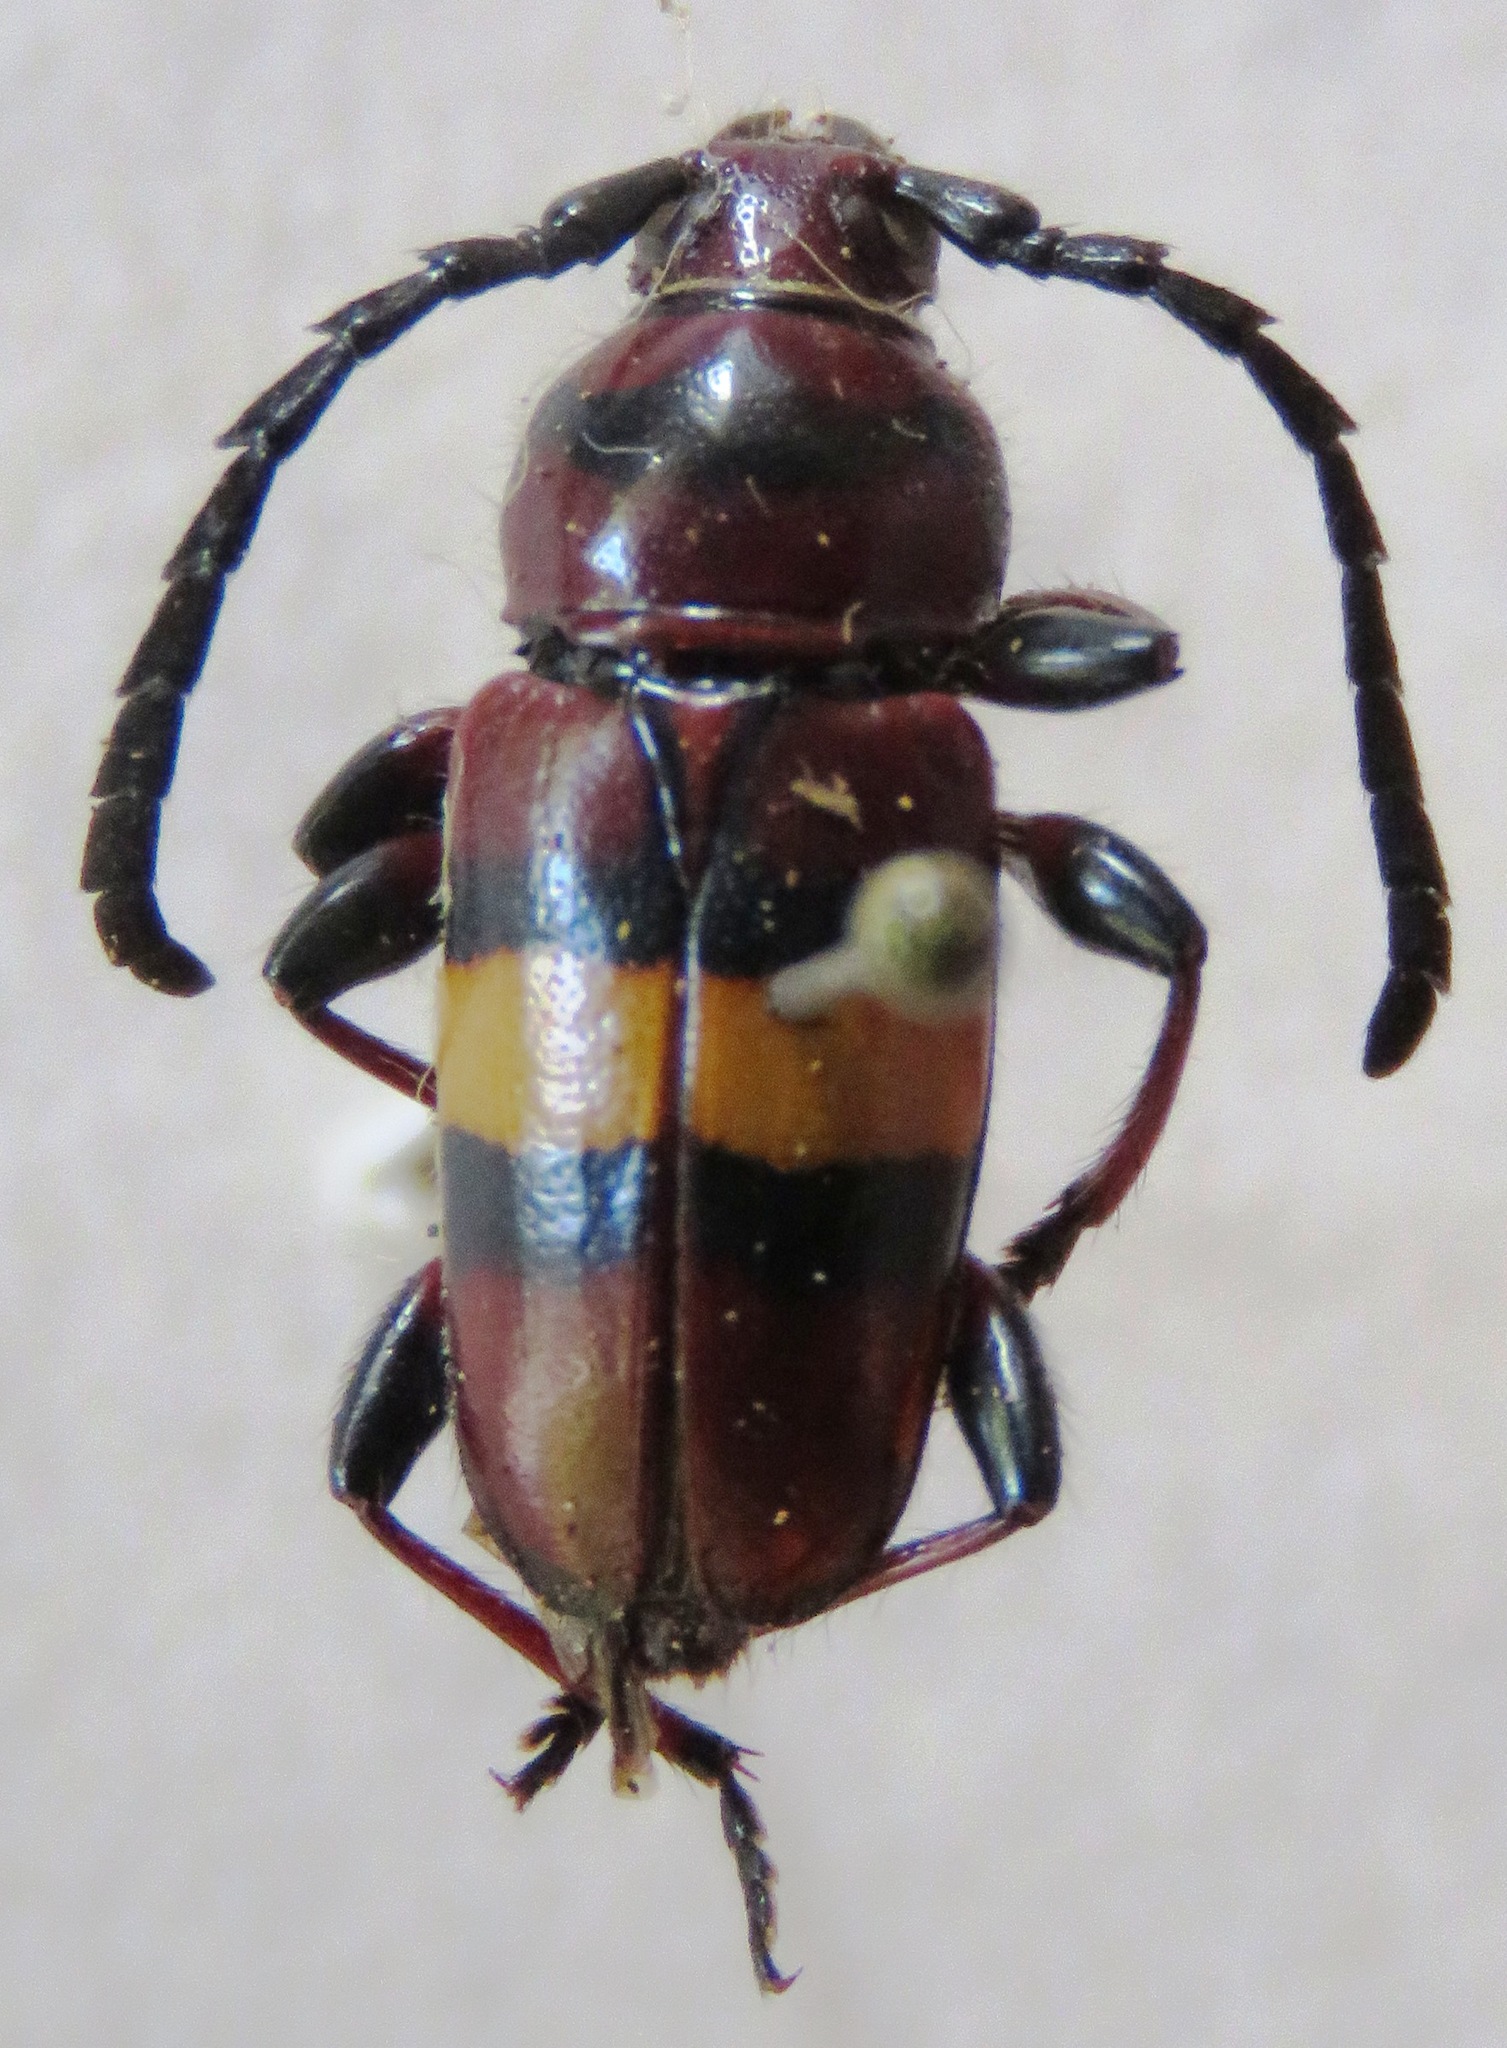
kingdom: Animalia
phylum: Arthropoda
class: Insecta
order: Coleoptera
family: Cerambycidae
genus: Lissonotus
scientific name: Lissonotus flavocinctus
